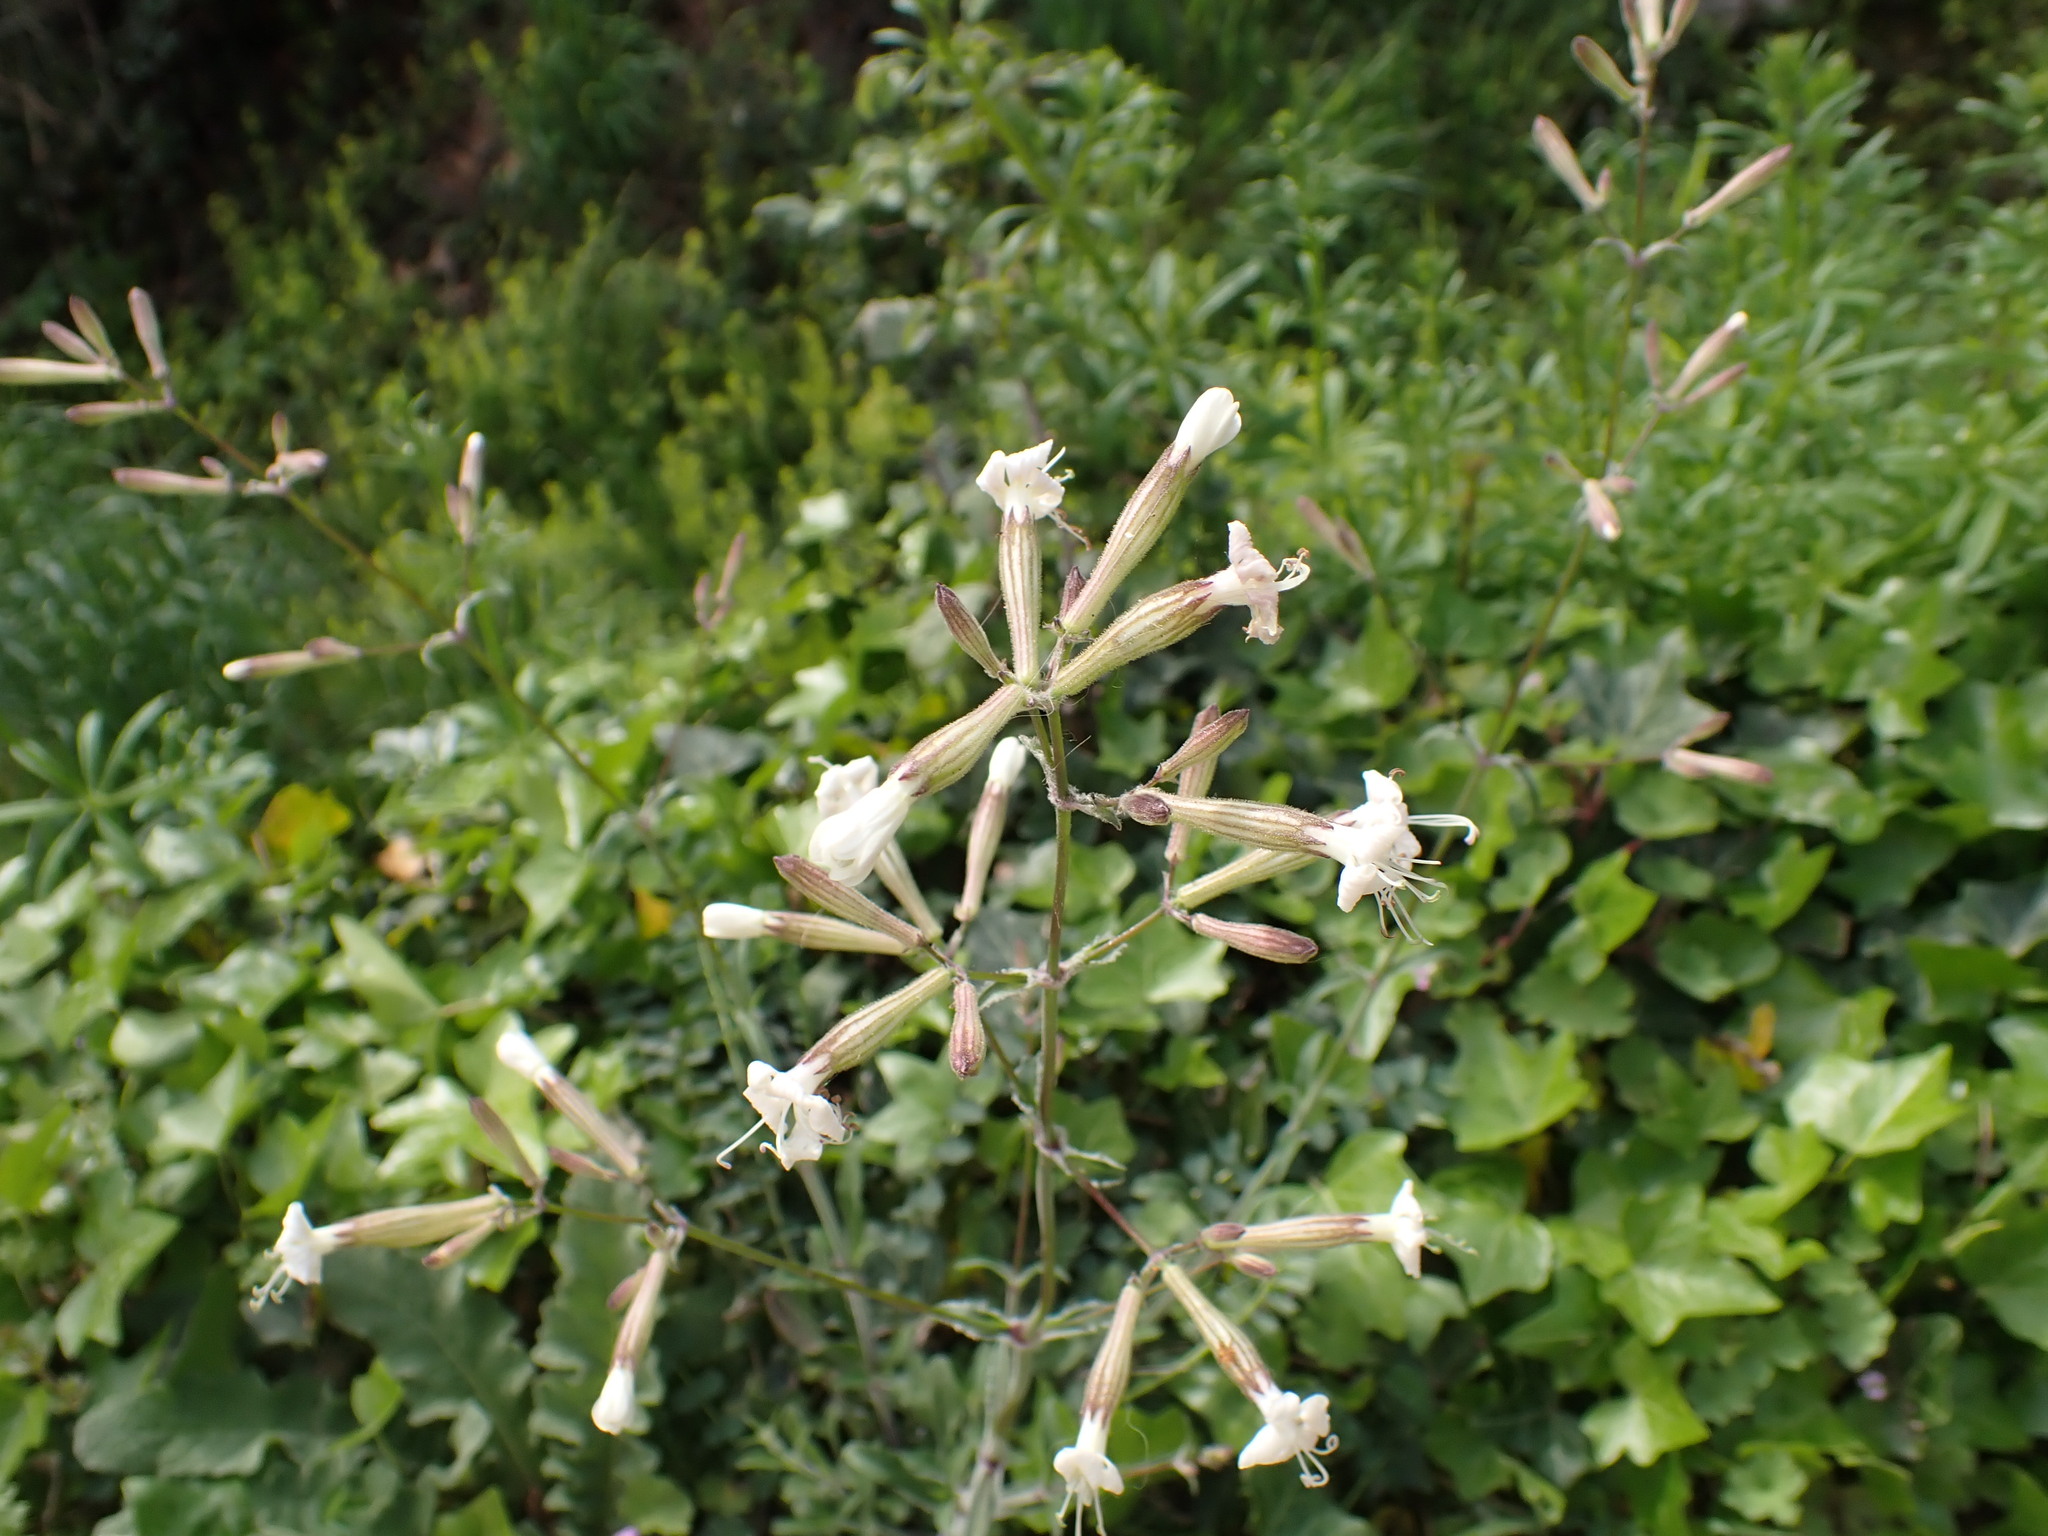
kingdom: Plantae
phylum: Tracheophyta
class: Magnoliopsida
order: Caryophyllales
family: Caryophyllaceae
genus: Silene
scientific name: Silene italica
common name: Italian catchfly
